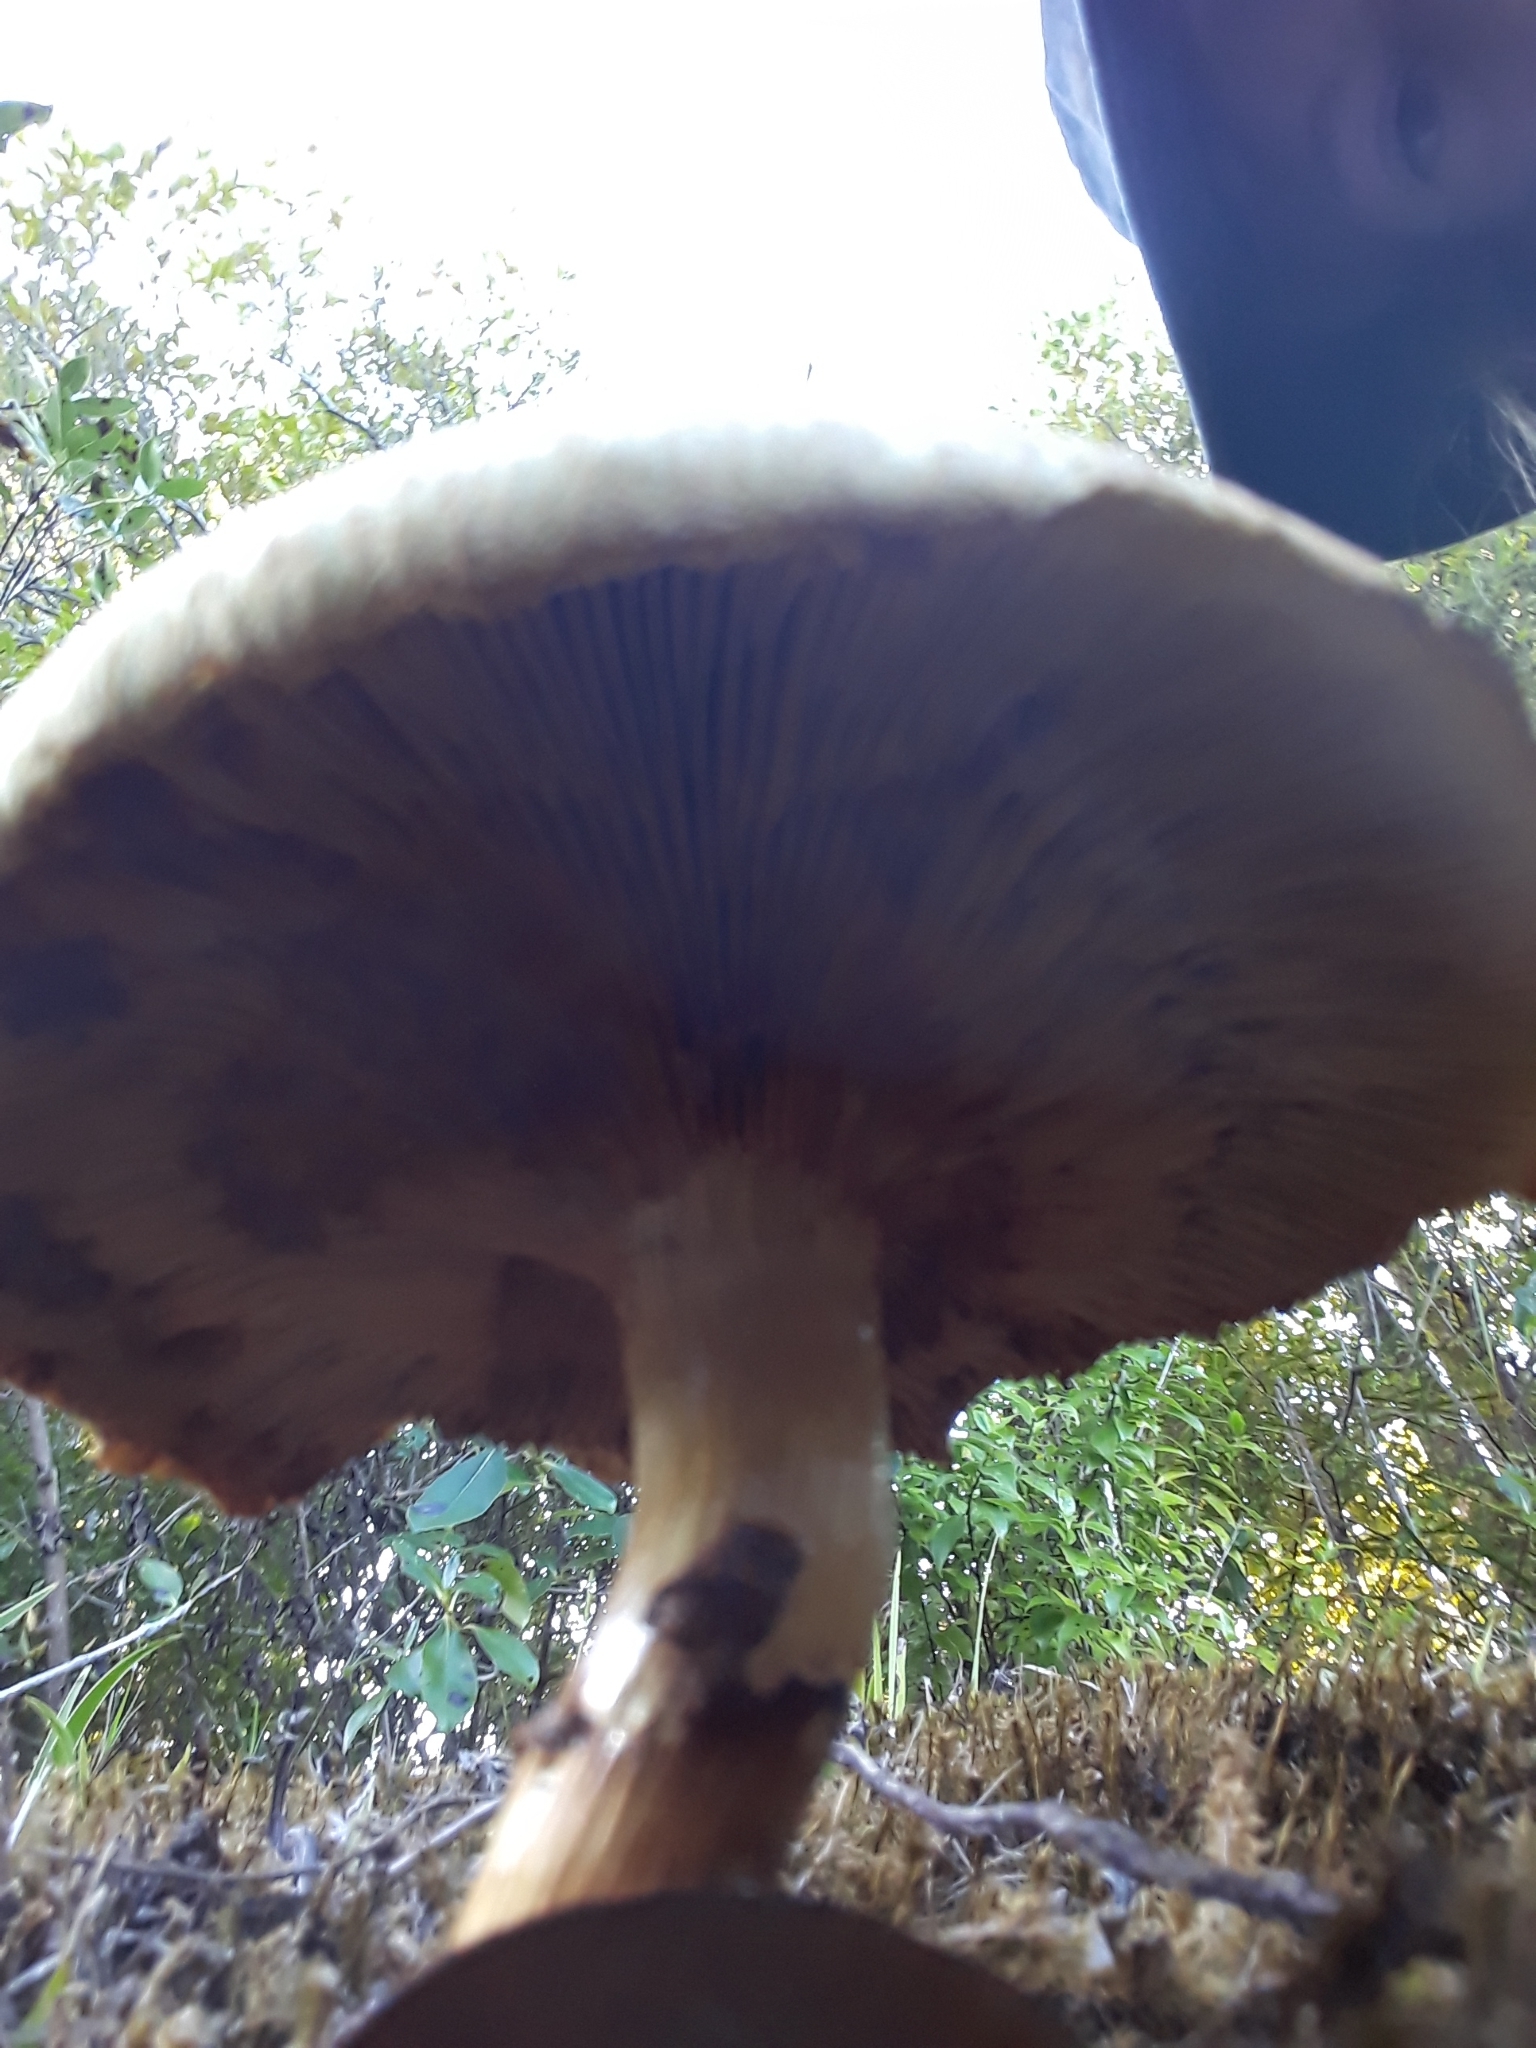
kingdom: Fungi
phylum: Basidiomycota
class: Agaricomycetes
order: Agaricales
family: Hymenogastraceae
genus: Gymnopilus
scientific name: Gymnopilus junonius
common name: Spectacular rustgill
